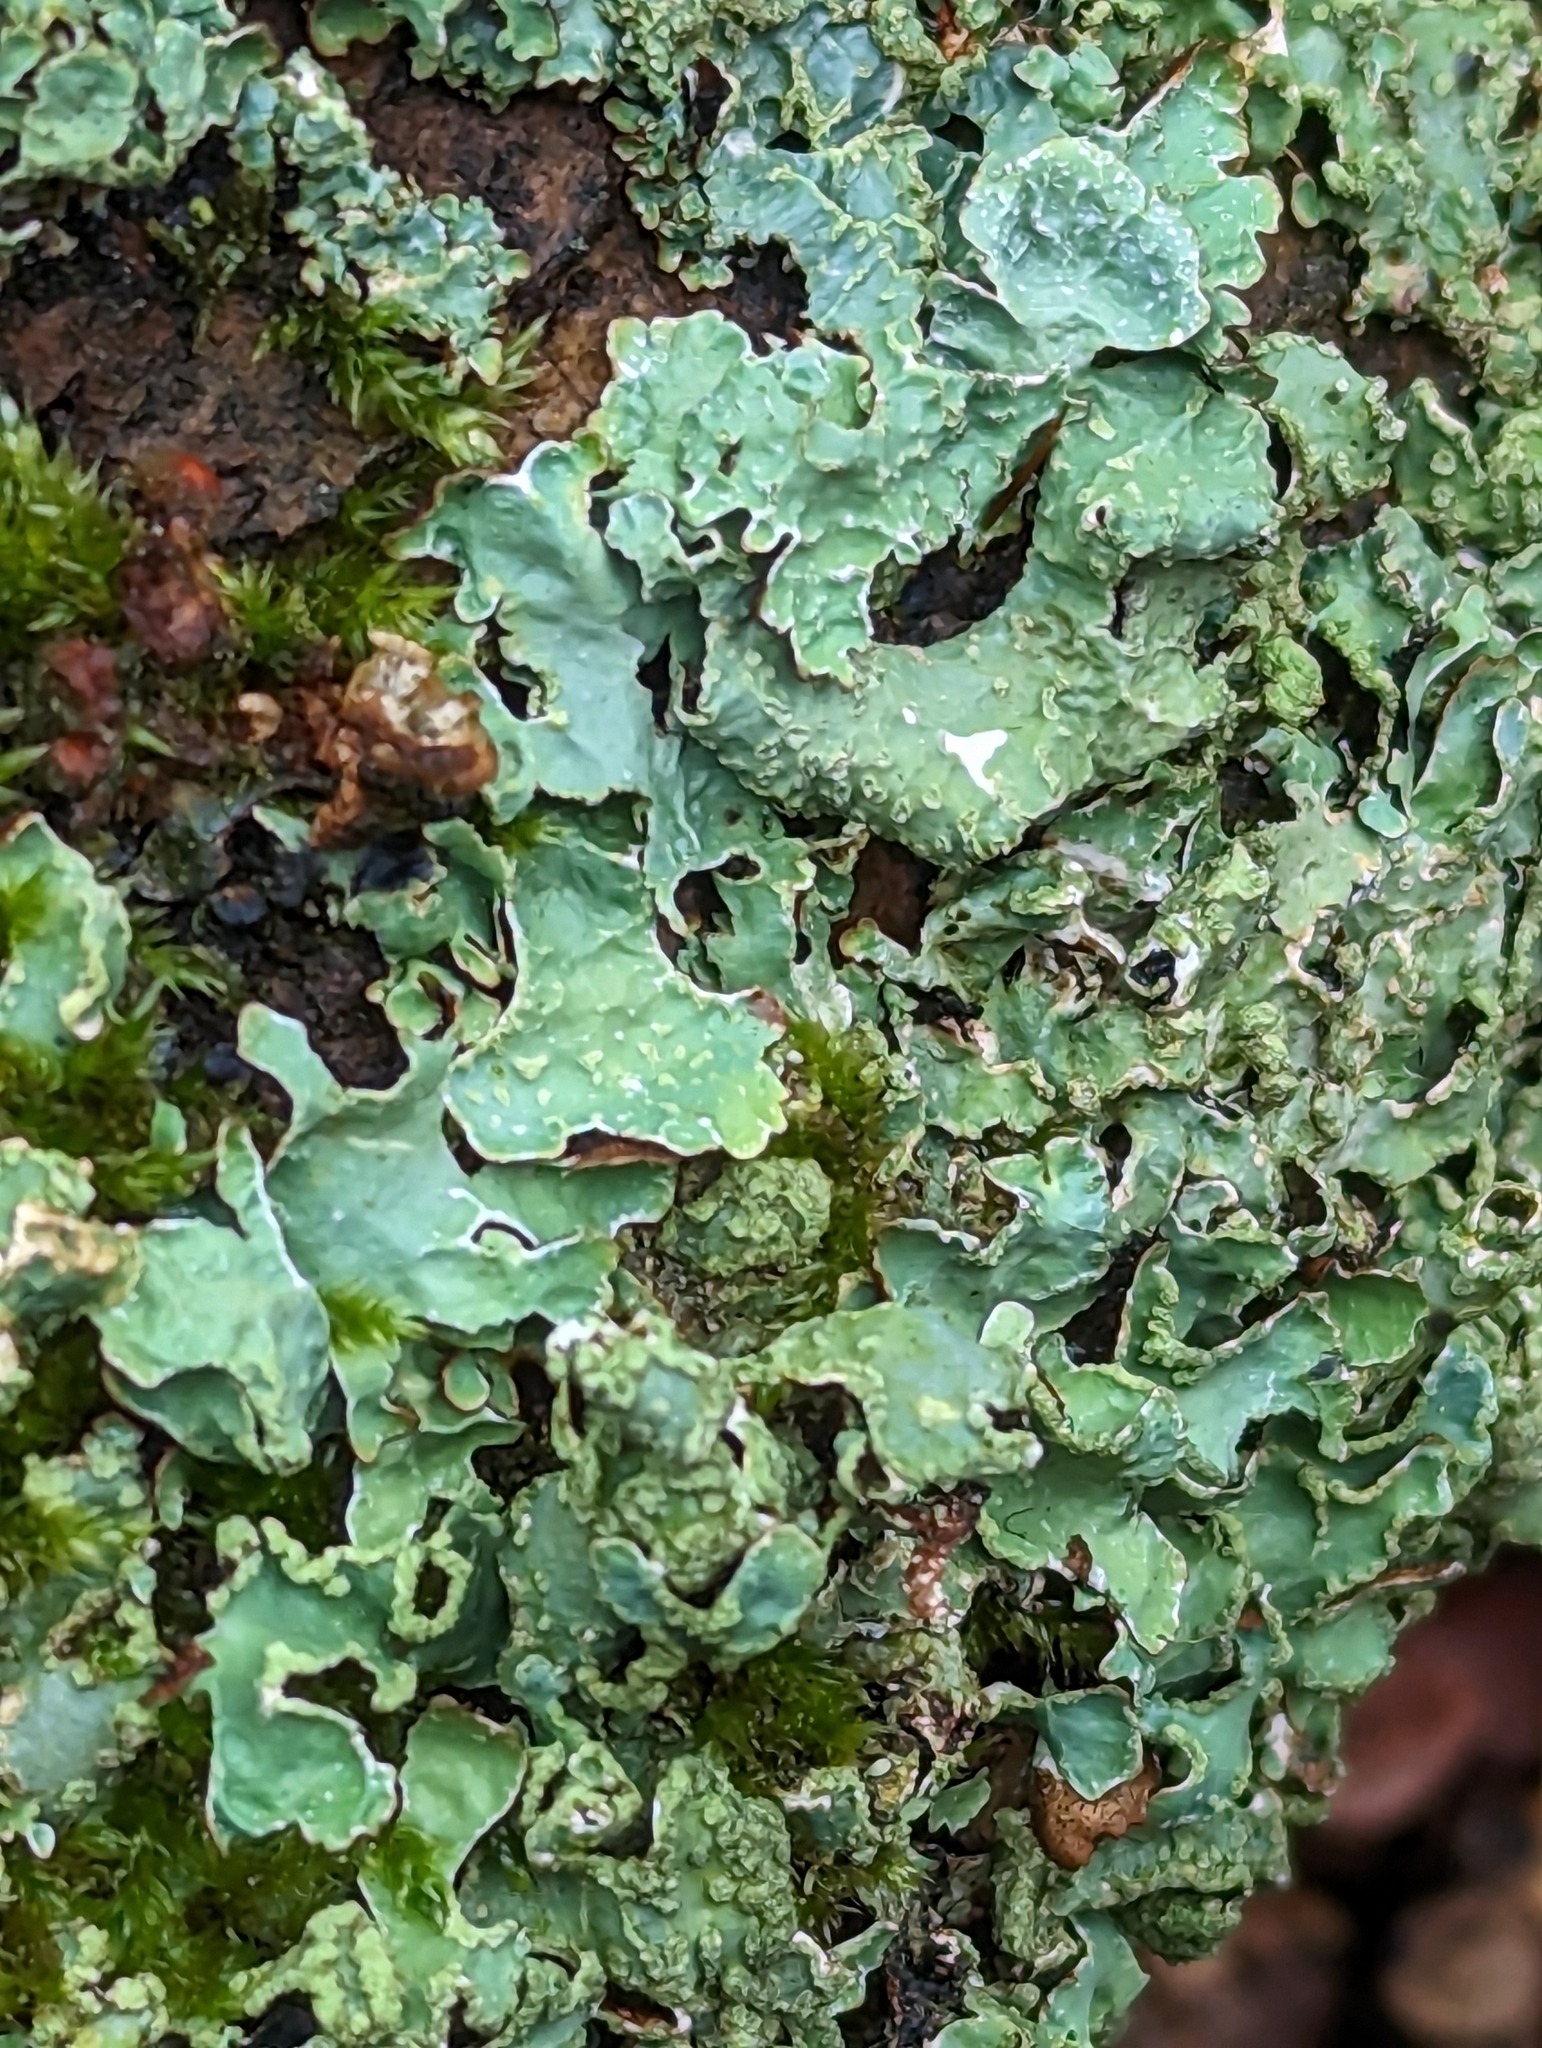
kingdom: Fungi
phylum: Ascomycota
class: Lecanoromycetes
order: Lecanorales
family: Parmeliaceae
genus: Parmelia
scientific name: Parmelia sulcata
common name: Netted shield lichen
